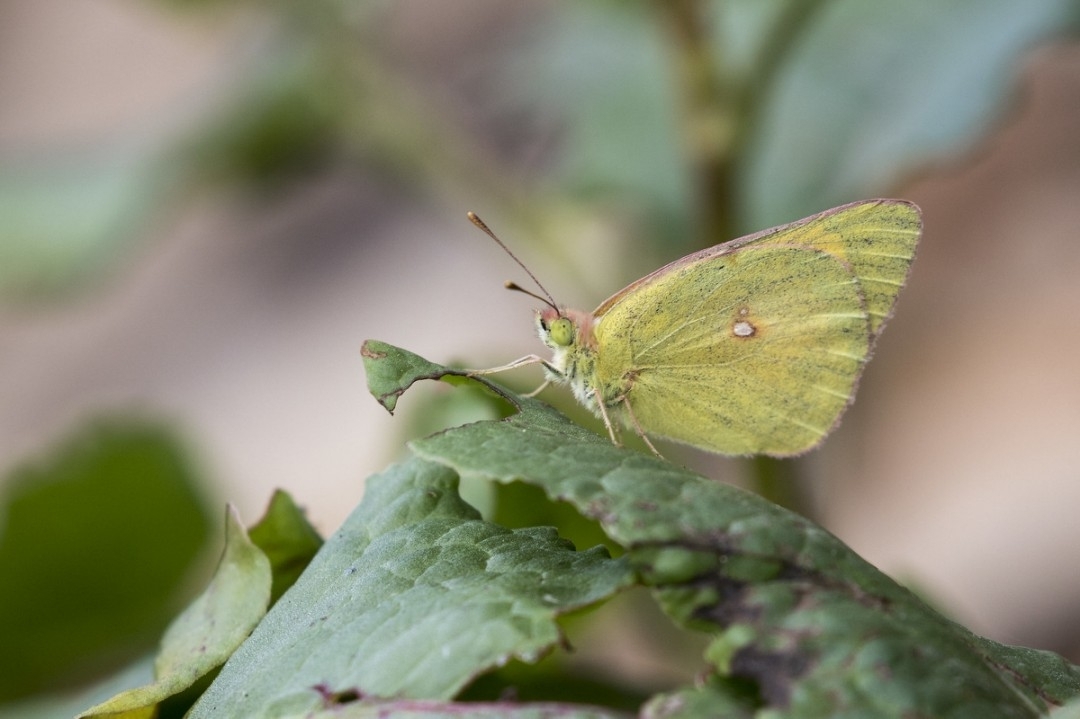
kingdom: Animalia
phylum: Arthropoda
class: Insecta
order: Lepidoptera
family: Pieridae
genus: Colias
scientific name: Colias fieldii
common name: Dark clouded yellow
